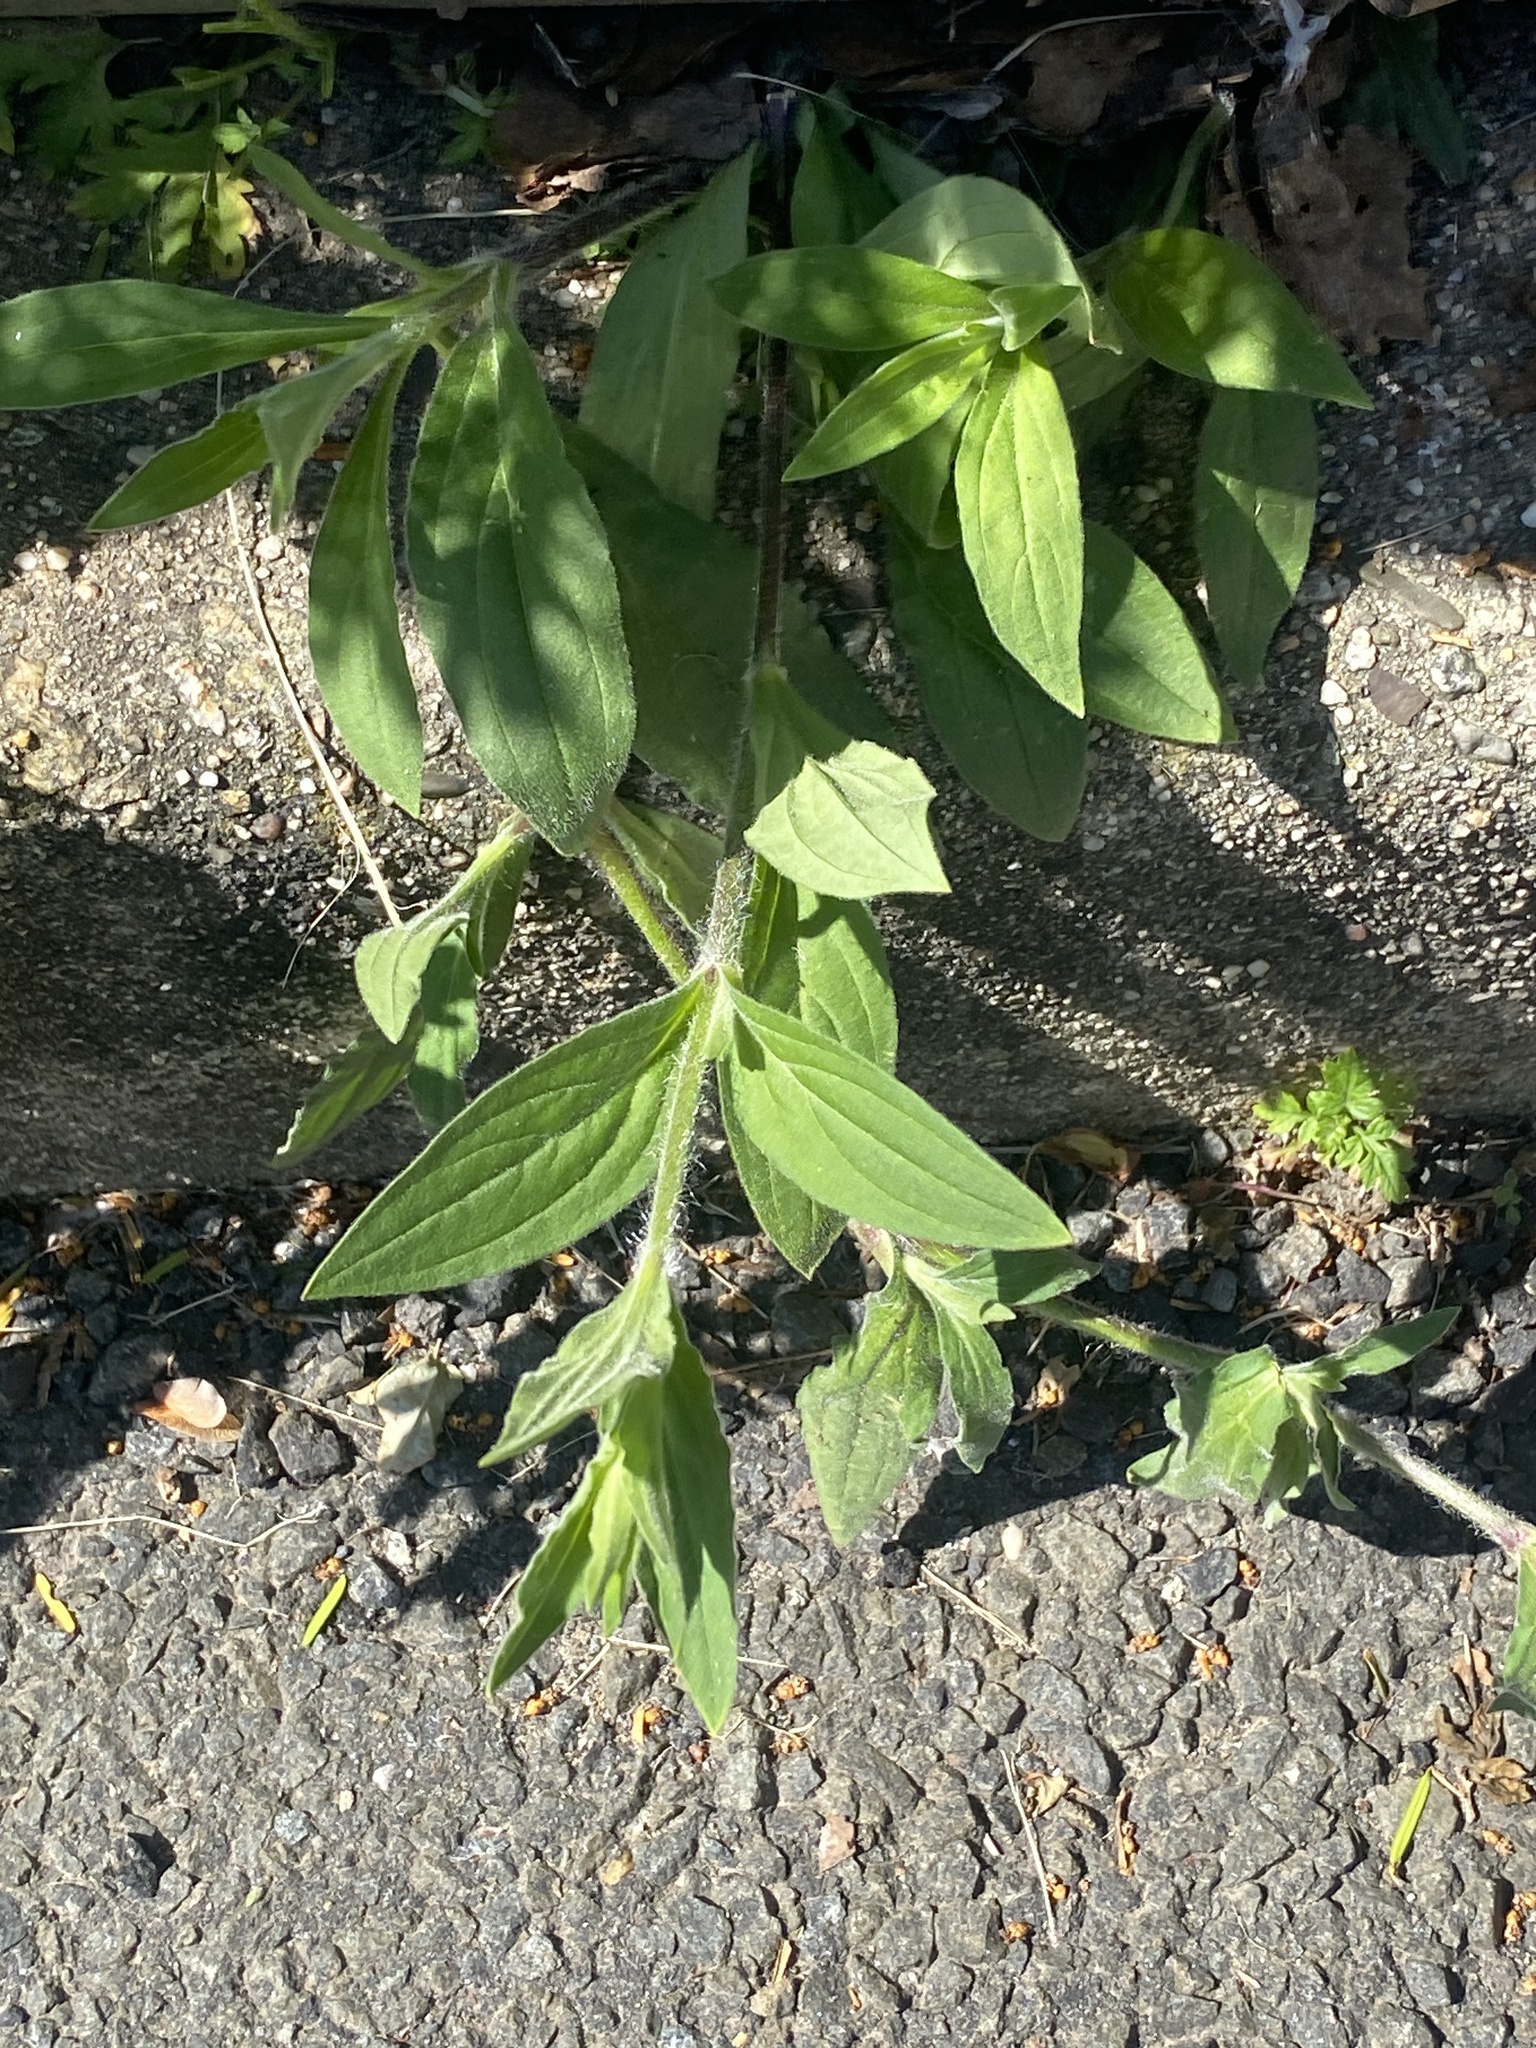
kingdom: Plantae
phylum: Tracheophyta
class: Magnoliopsida
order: Caryophyllales
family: Caryophyllaceae
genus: Silene
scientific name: Silene latifolia
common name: White campion
